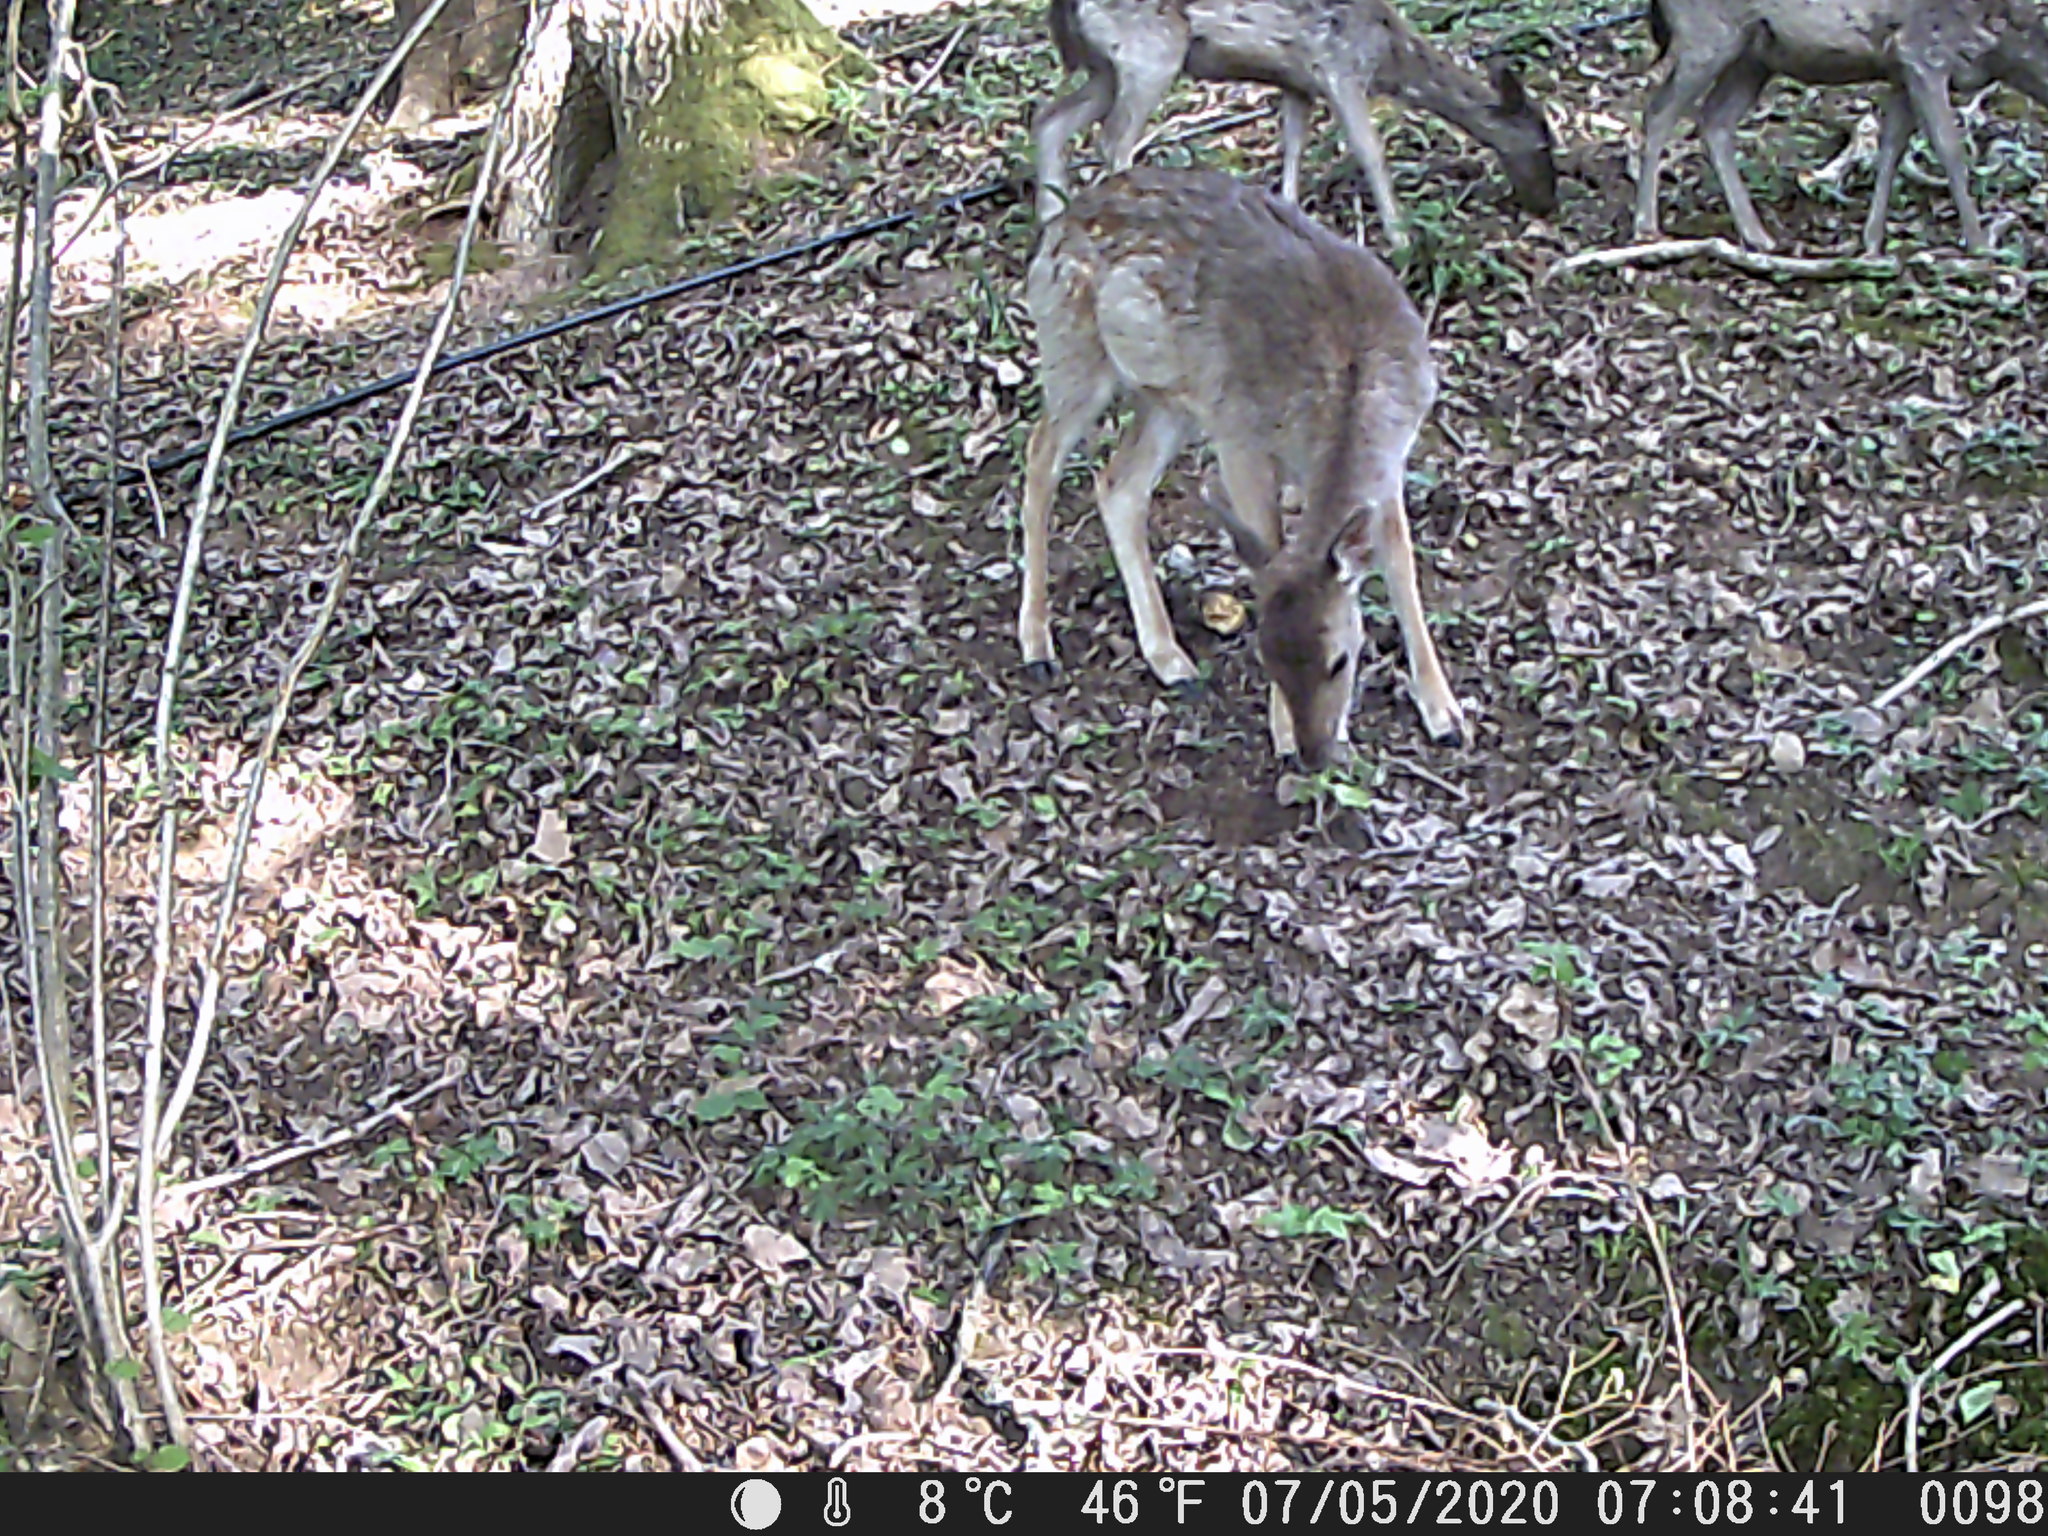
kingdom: Animalia
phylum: Chordata
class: Mammalia
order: Artiodactyla
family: Cervidae
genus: Dama
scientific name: Dama dama
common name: Fallow deer
